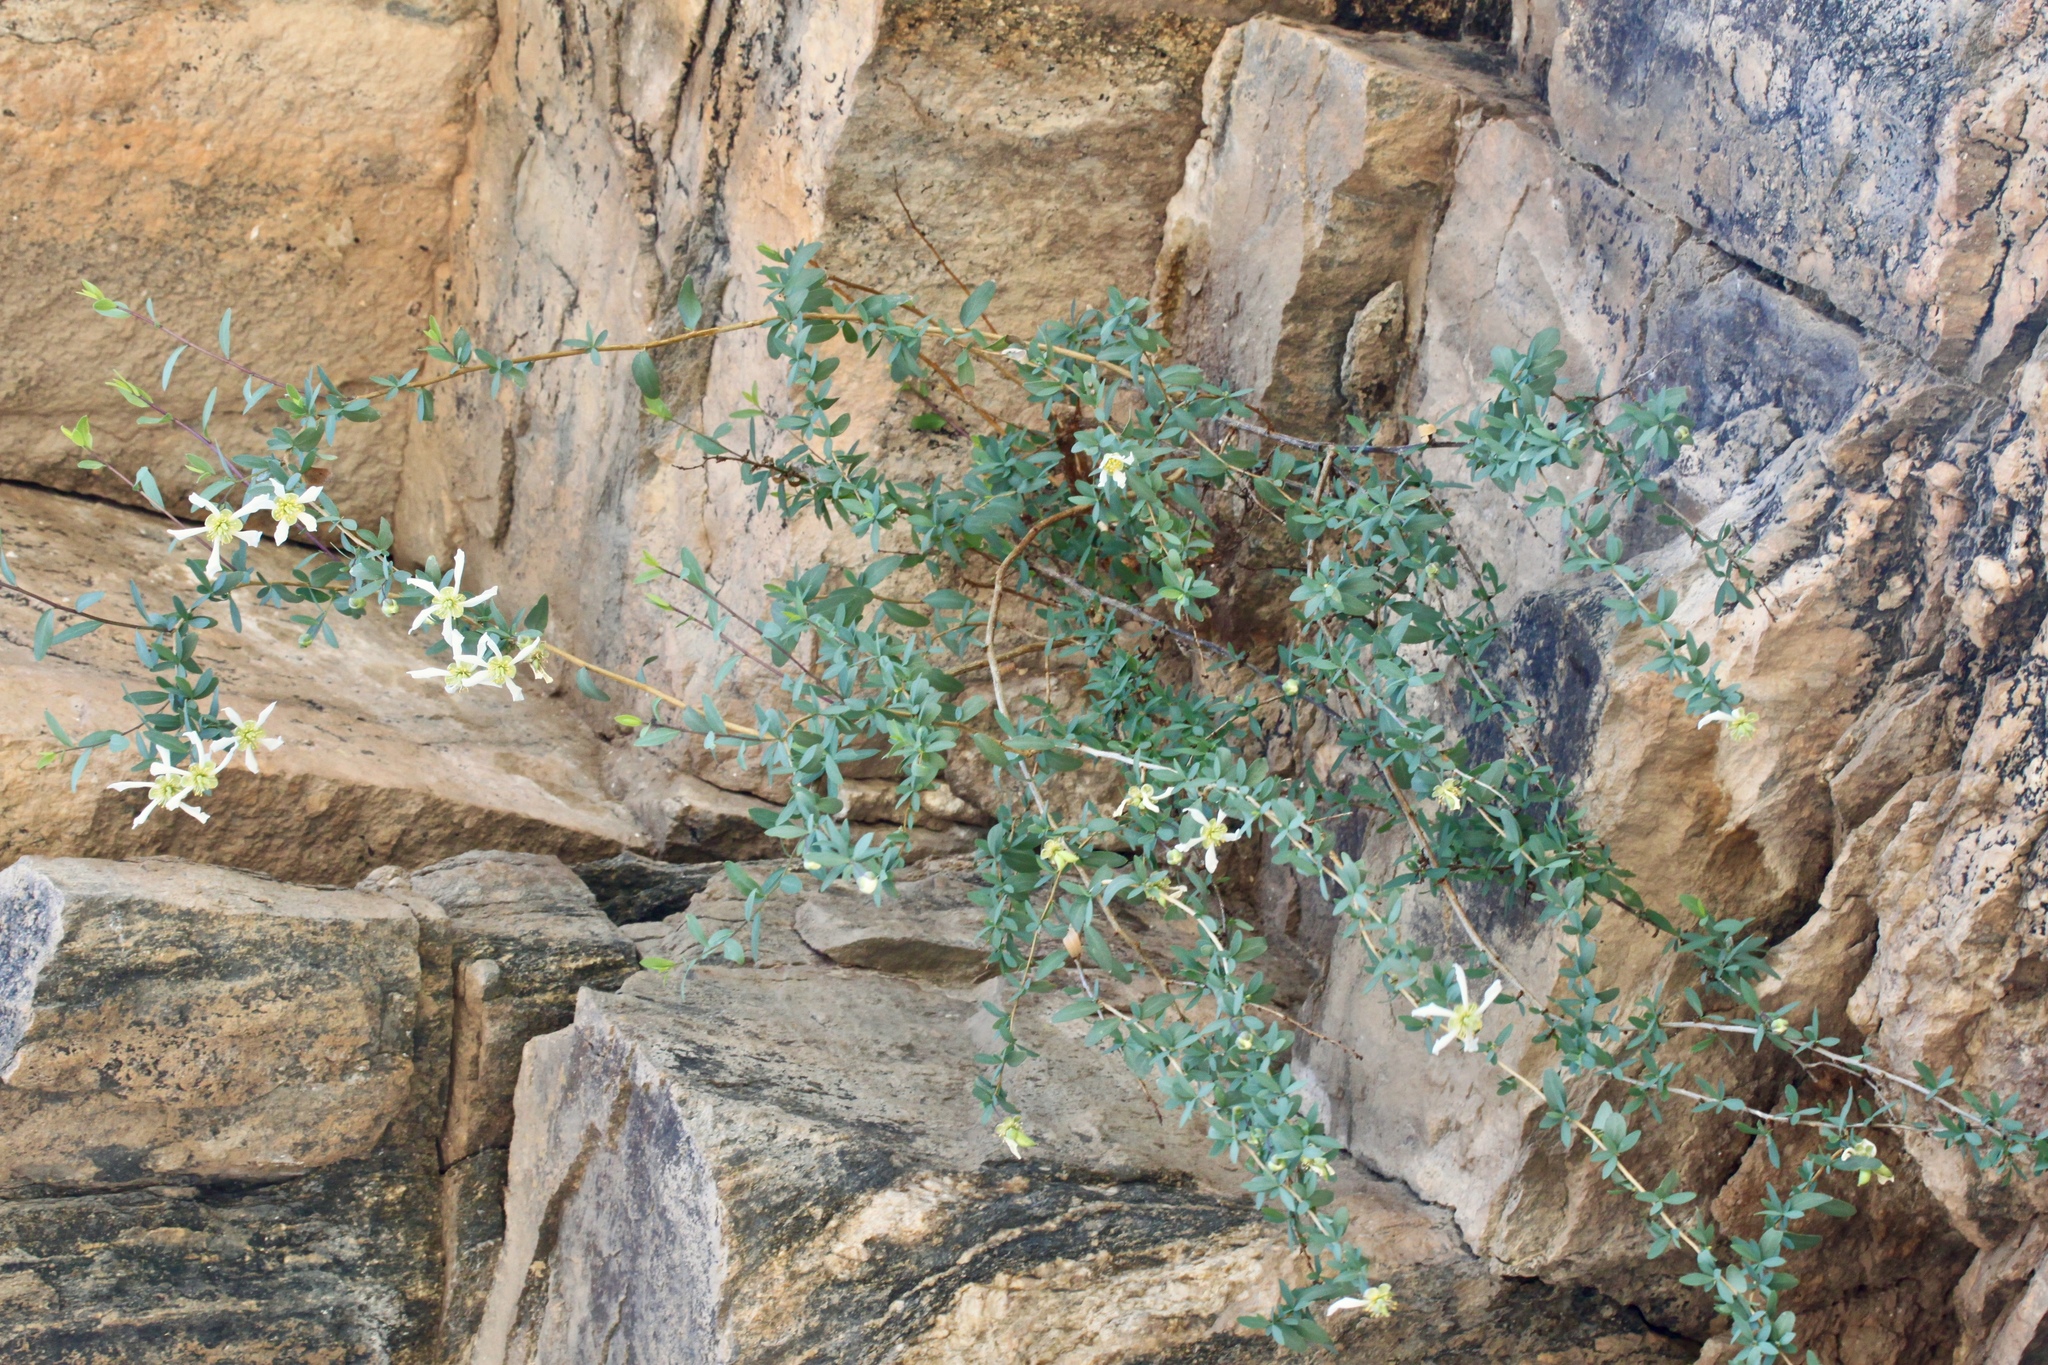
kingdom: Plantae
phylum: Tracheophyta
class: Magnoliopsida
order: Crossosomatales
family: Crossosomataceae
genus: Crossosoma
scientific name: Crossosoma bigelovii
